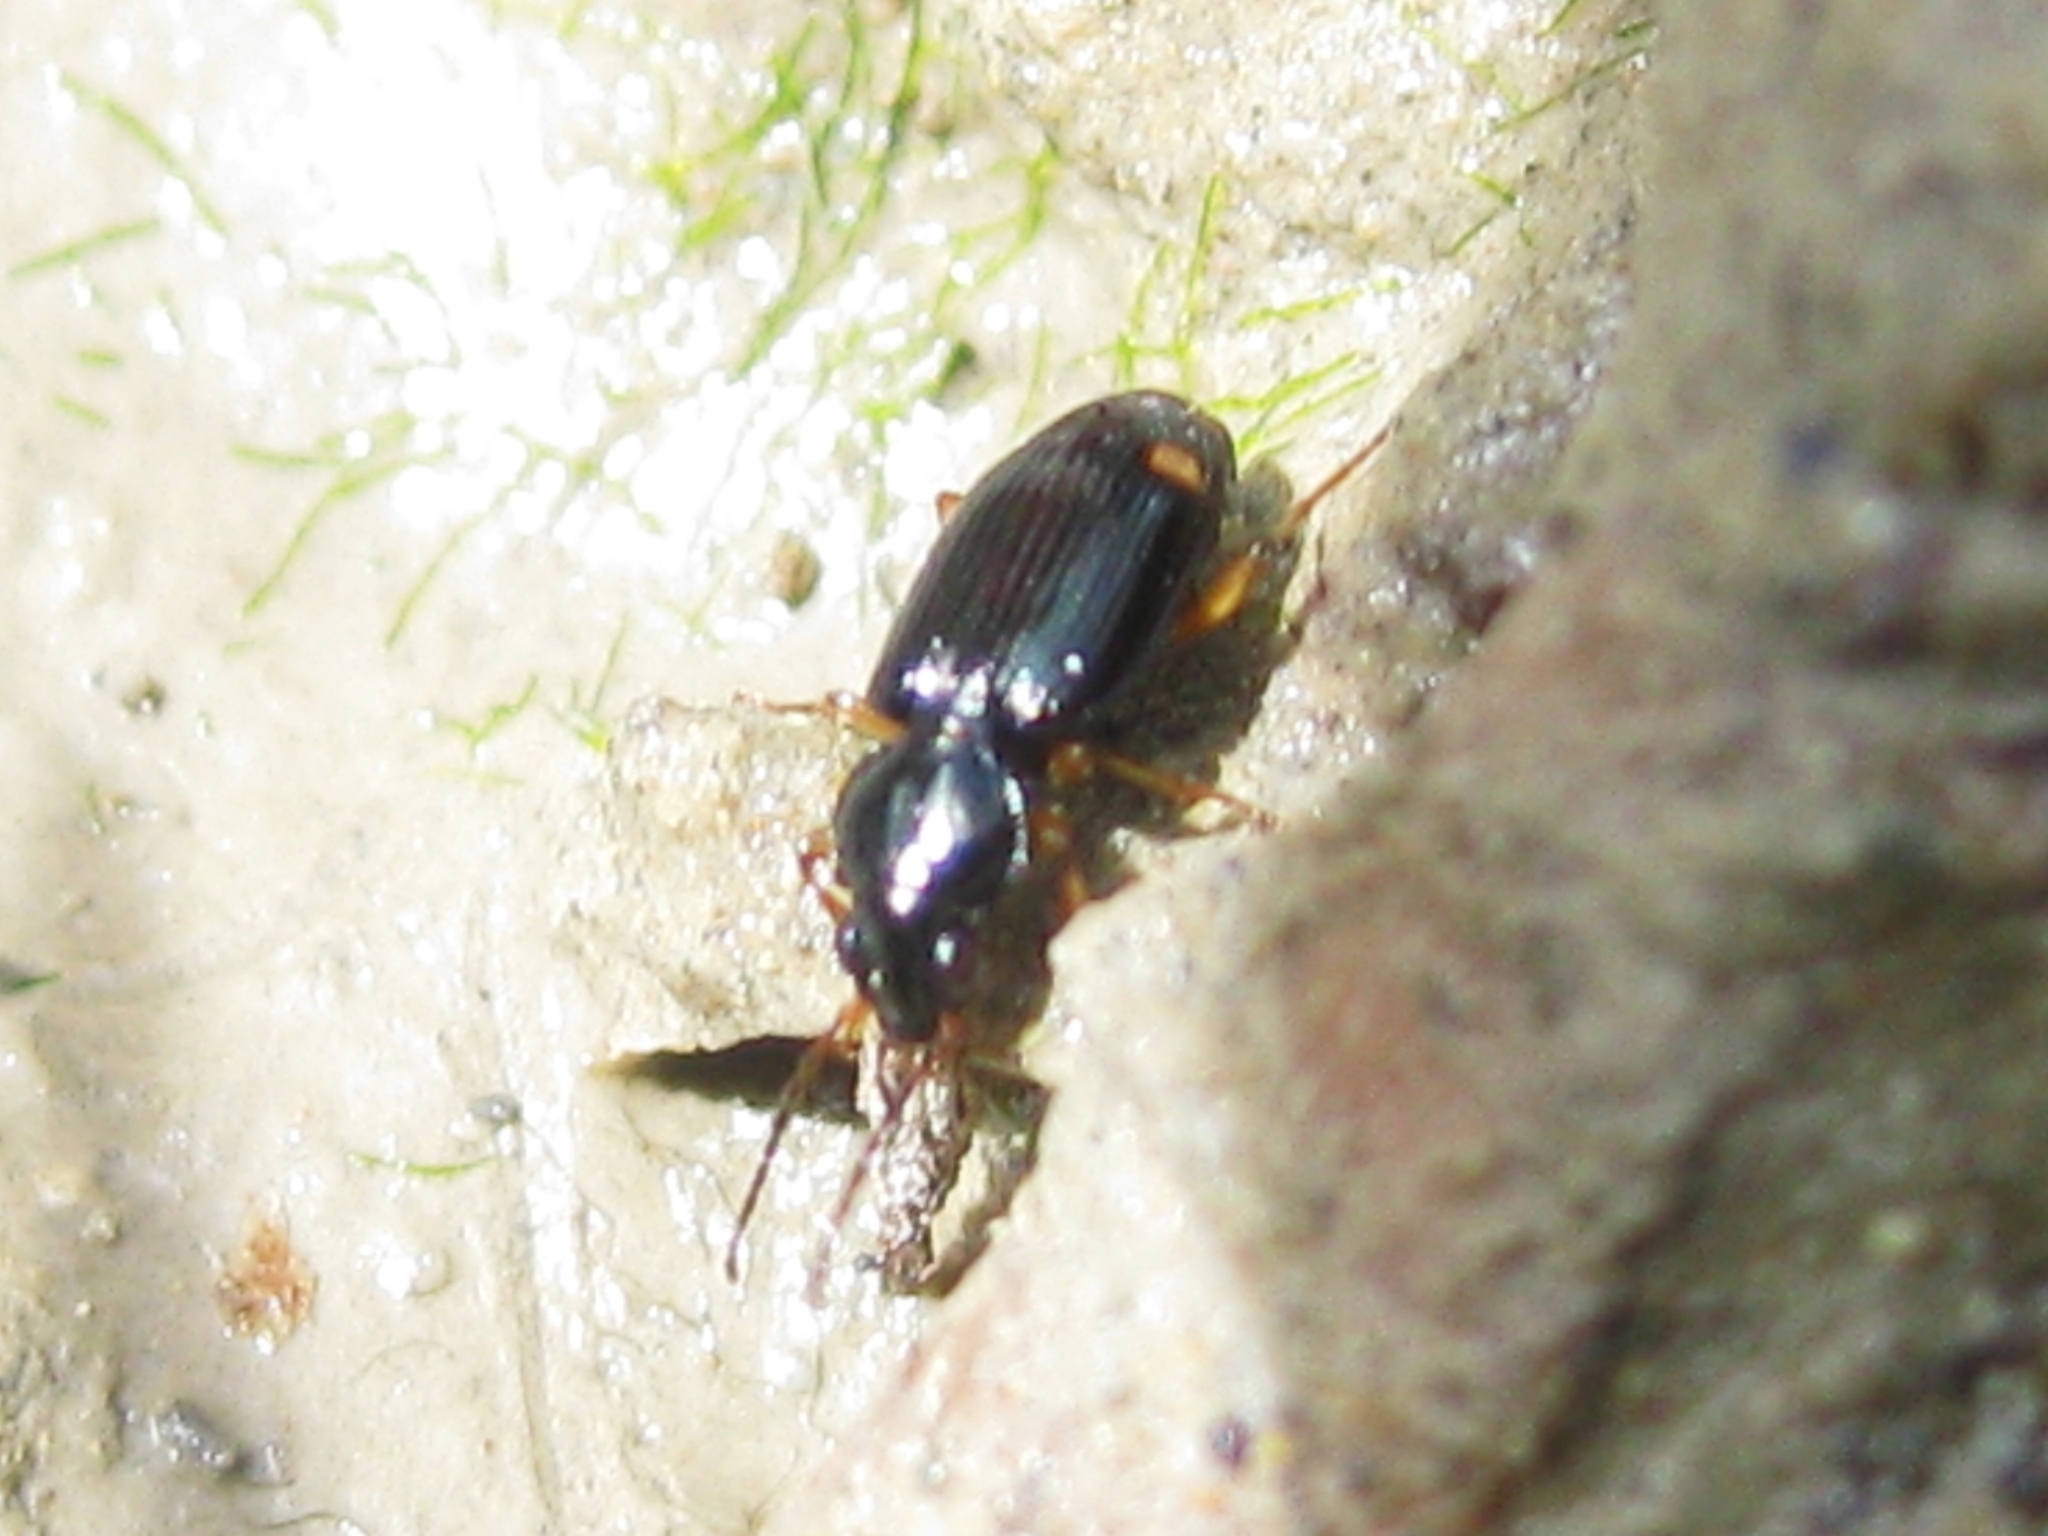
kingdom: Animalia
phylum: Arthropoda
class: Insecta
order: Coleoptera
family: Carabidae
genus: Bembidion
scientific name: Bembidion biguttatum
